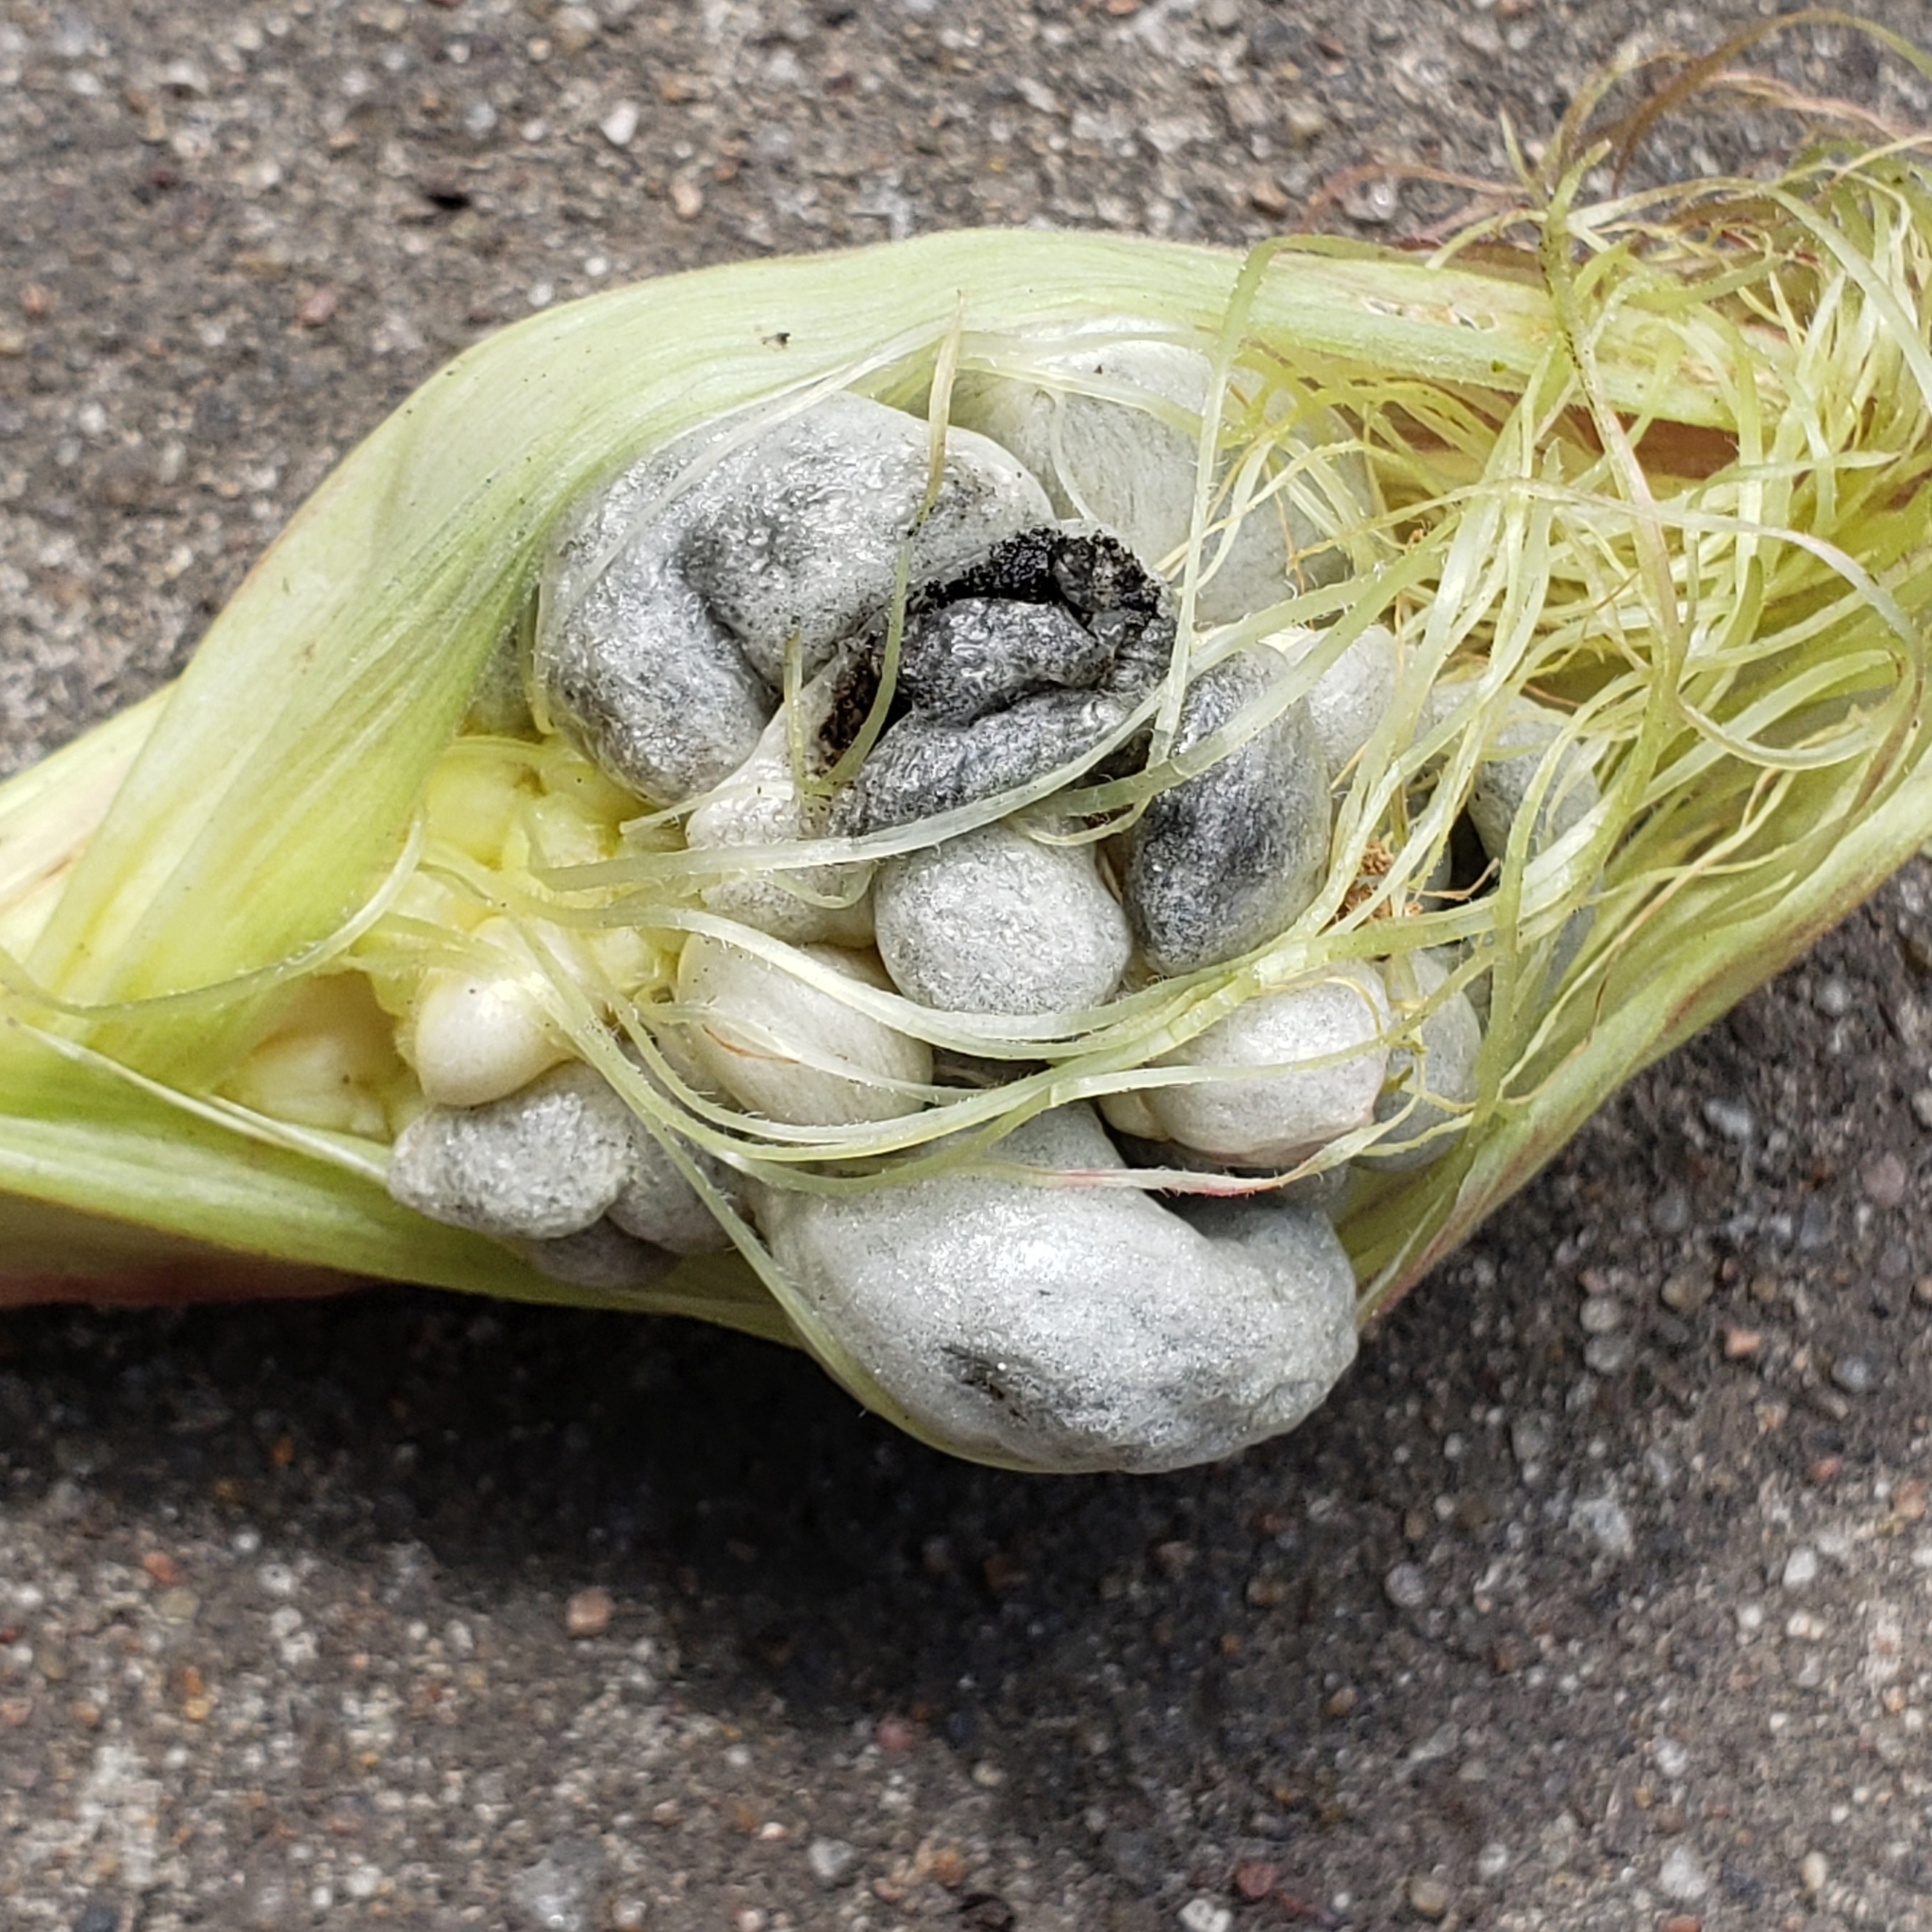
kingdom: Fungi
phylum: Basidiomycota
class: Ustilaginomycetes
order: Ustilaginales
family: Ustilaginaceae
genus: Mycosarcoma
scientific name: Mycosarcoma maydis
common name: Corn smut
